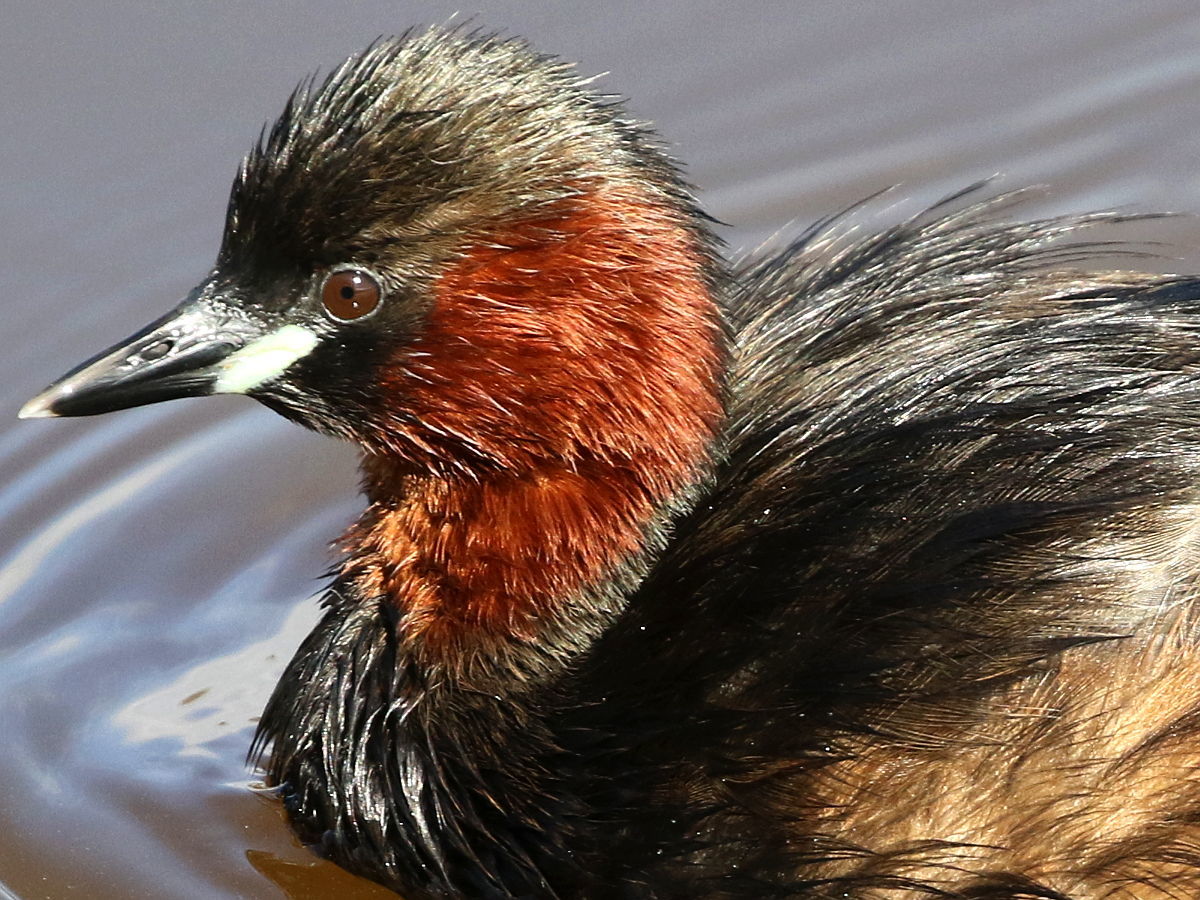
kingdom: Animalia
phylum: Chordata
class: Aves
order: Podicipediformes
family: Podicipedidae
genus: Tachybaptus
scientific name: Tachybaptus ruficollis
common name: Little grebe
